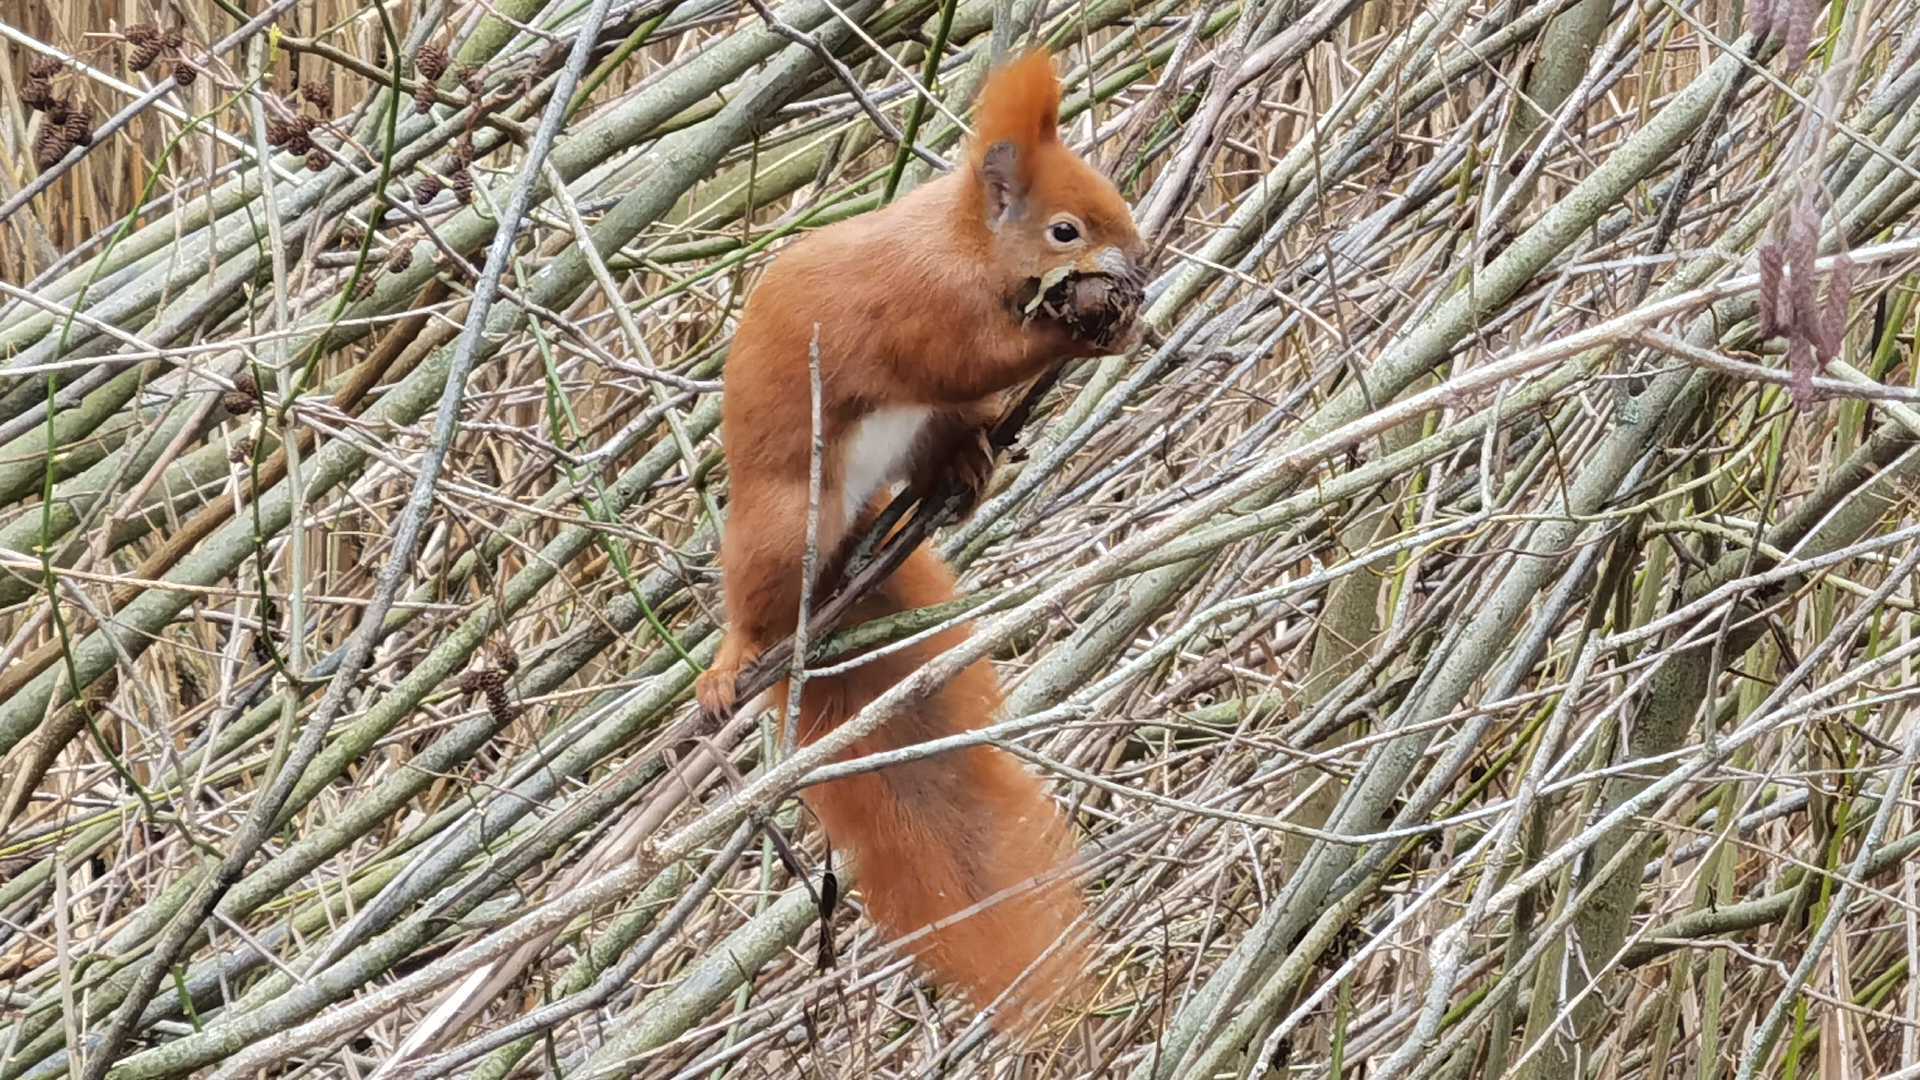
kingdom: Animalia
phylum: Chordata
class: Mammalia
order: Rodentia
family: Sciuridae
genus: Sciurus
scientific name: Sciurus vulgaris
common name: Eurasian red squirrel
